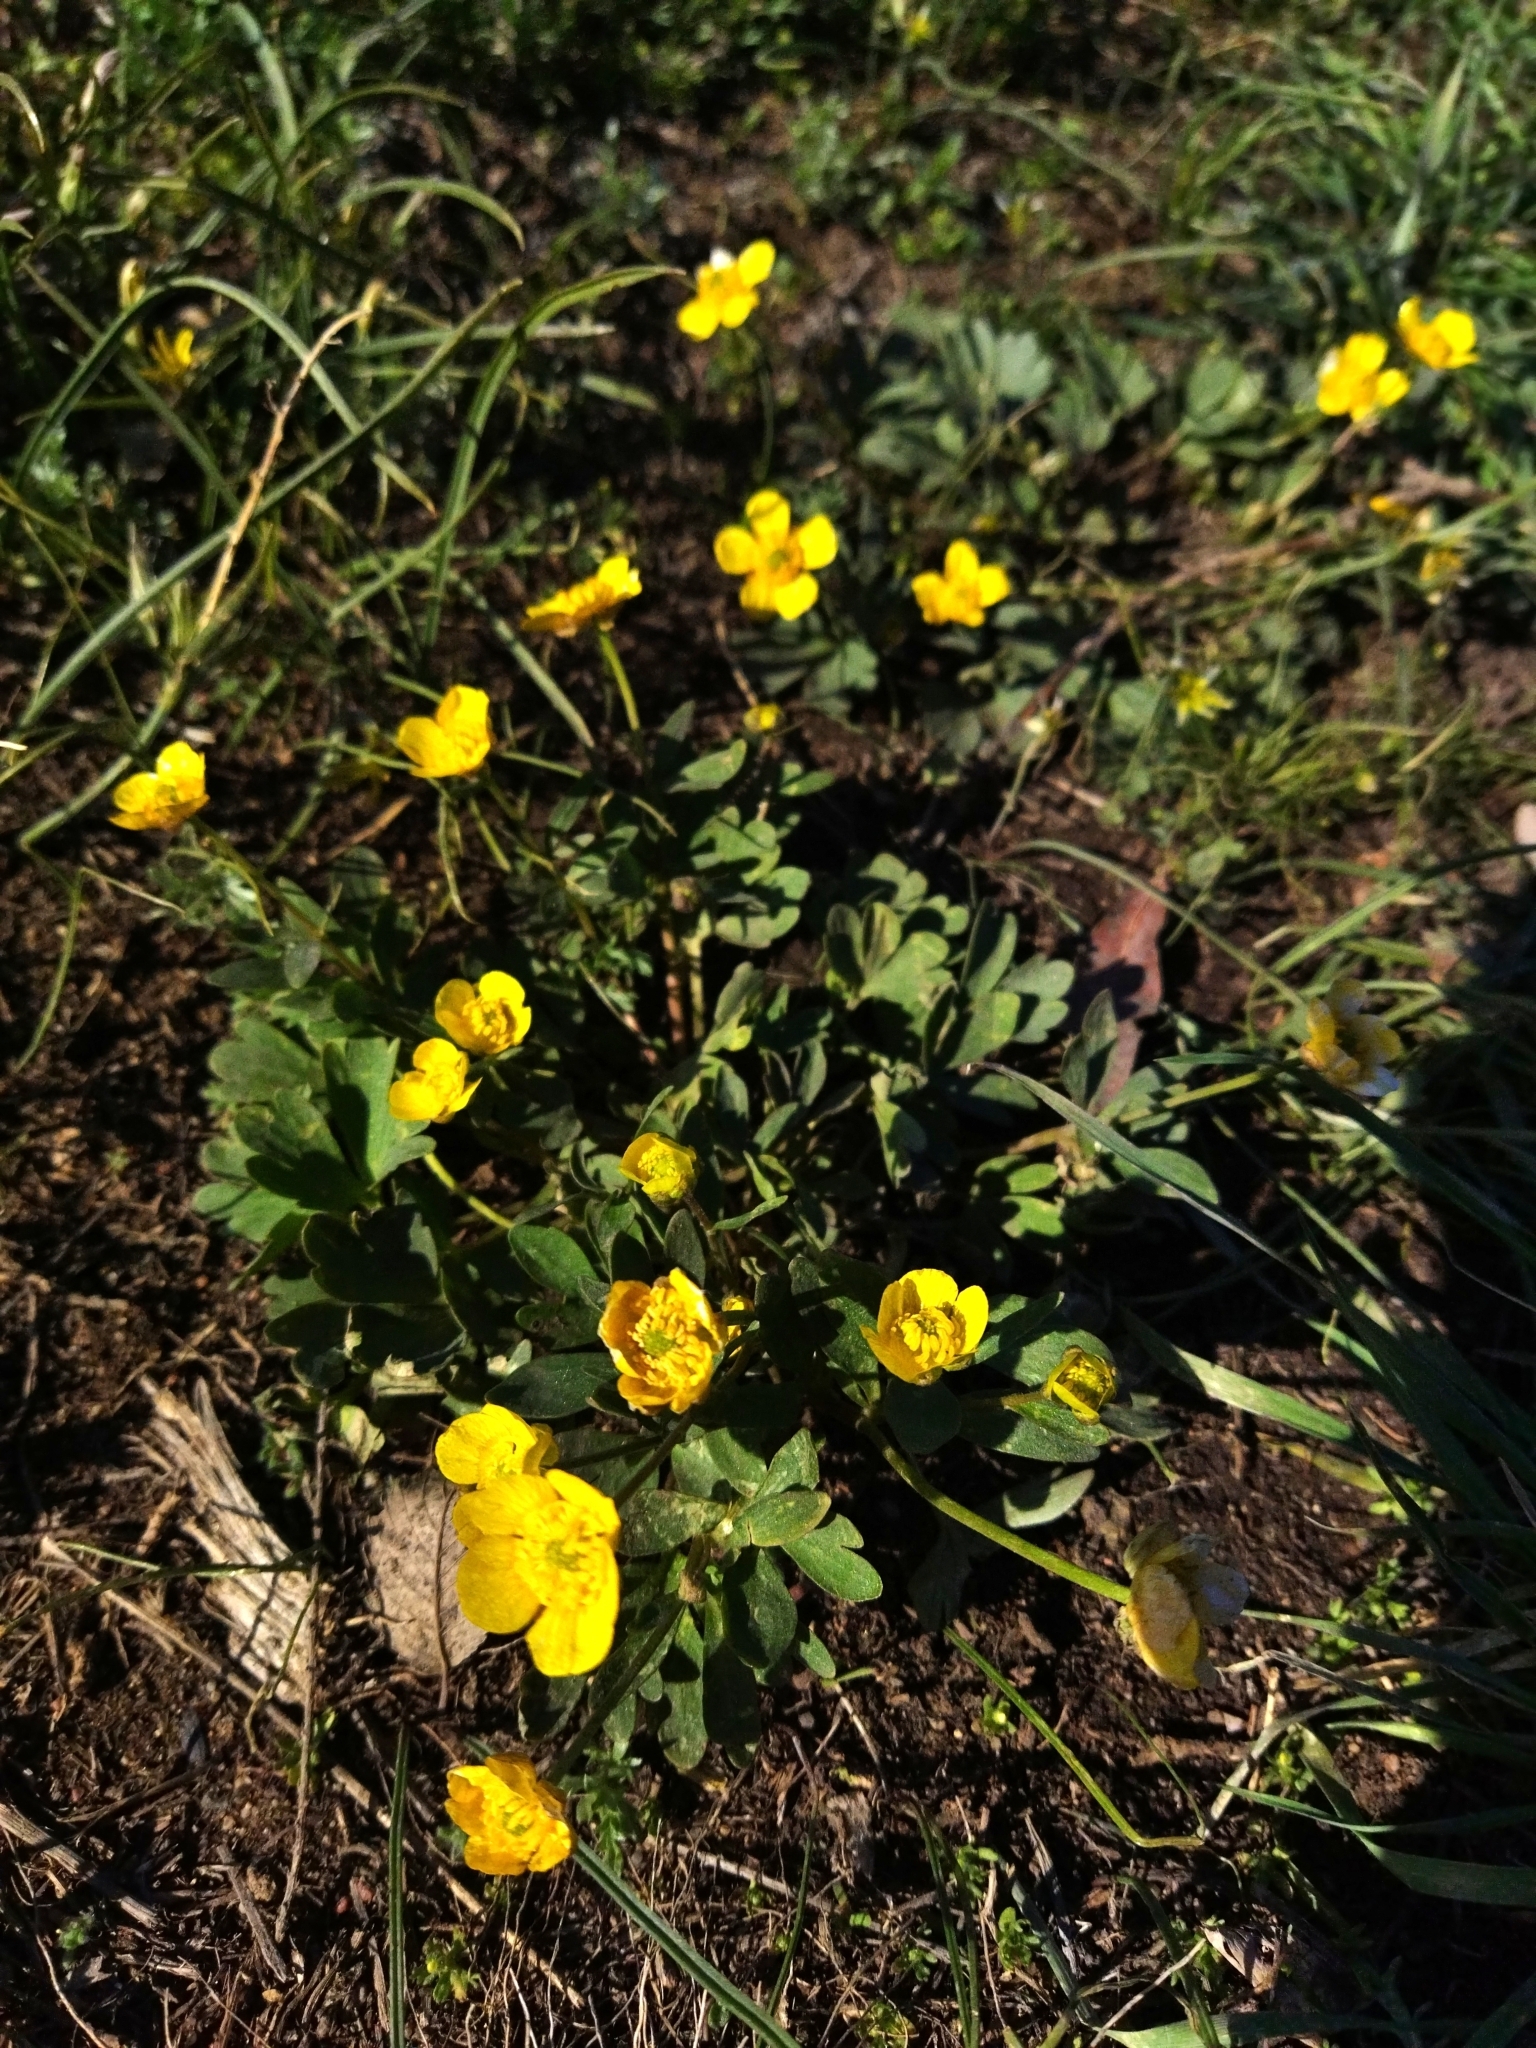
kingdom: Plantae
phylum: Tracheophyta
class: Magnoliopsida
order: Ranunculales
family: Ranunculaceae
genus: Ranunculus
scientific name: Ranunculus polyrhizos
